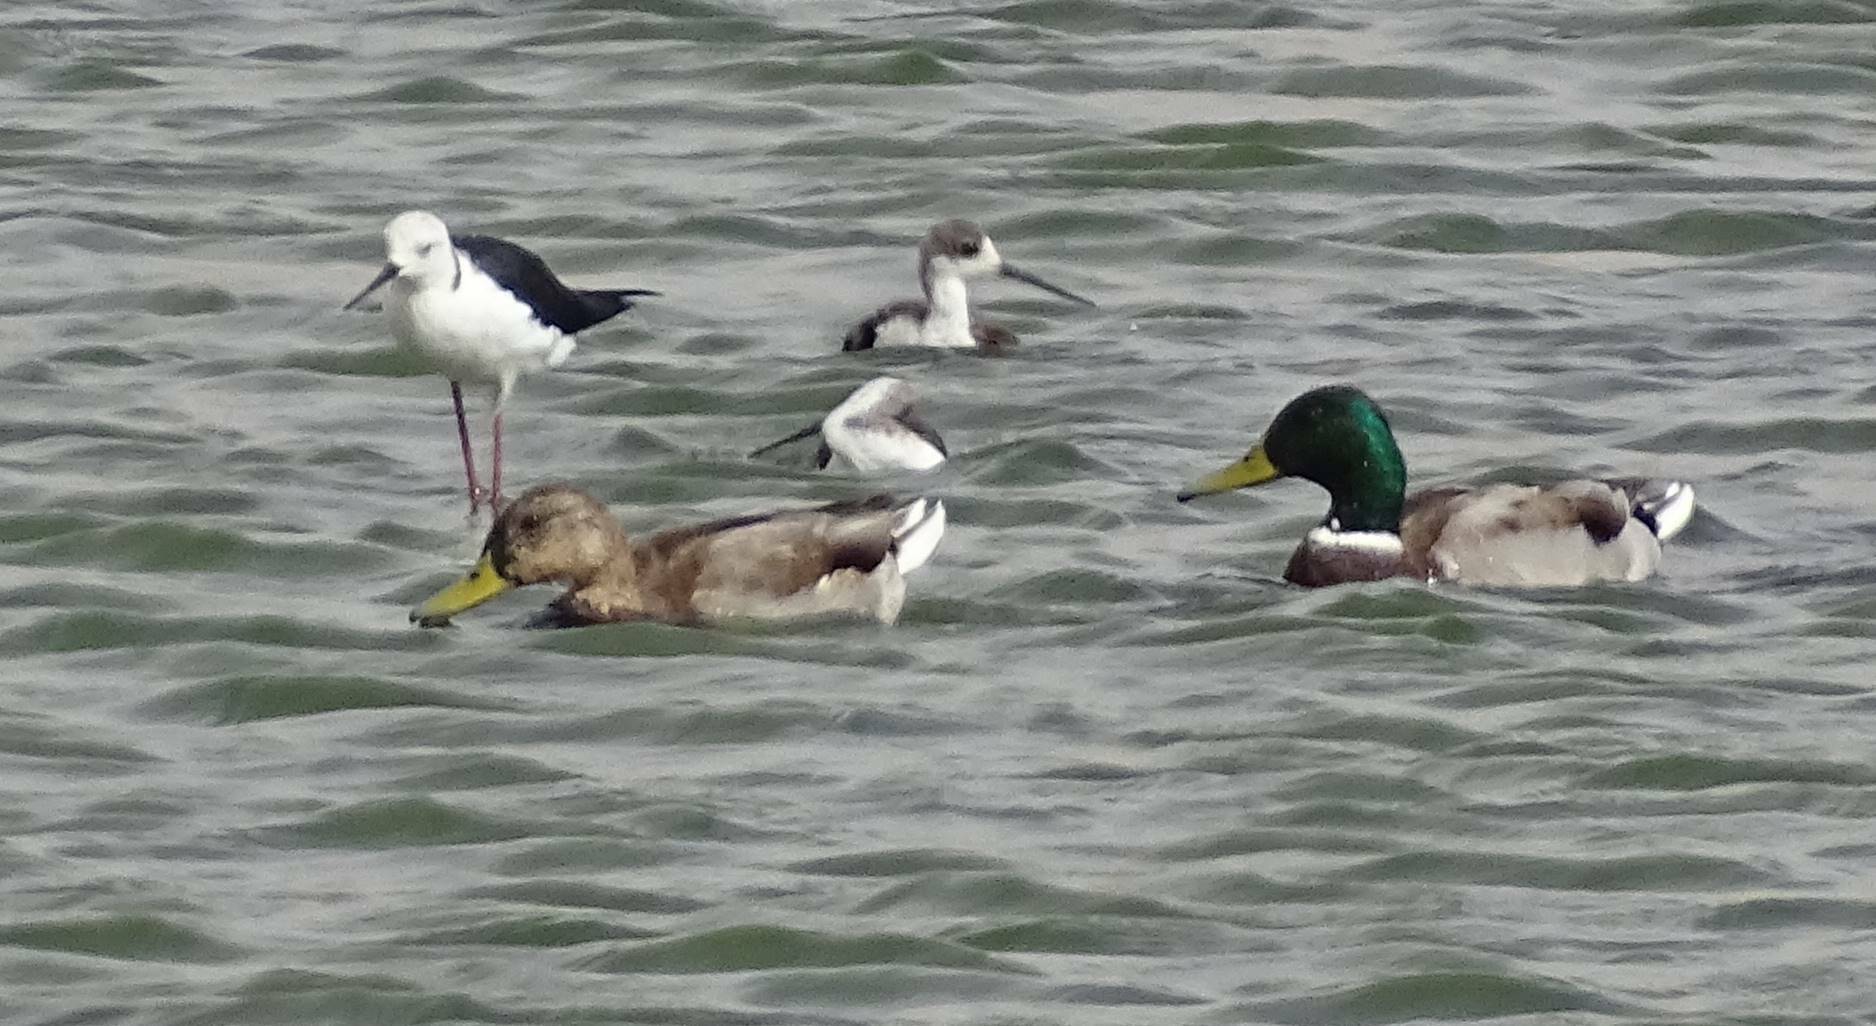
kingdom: Animalia
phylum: Chordata
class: Aves
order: Anseriformes
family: Anatidae
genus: Anas
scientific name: Anas platyrhynchos
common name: Mallard
